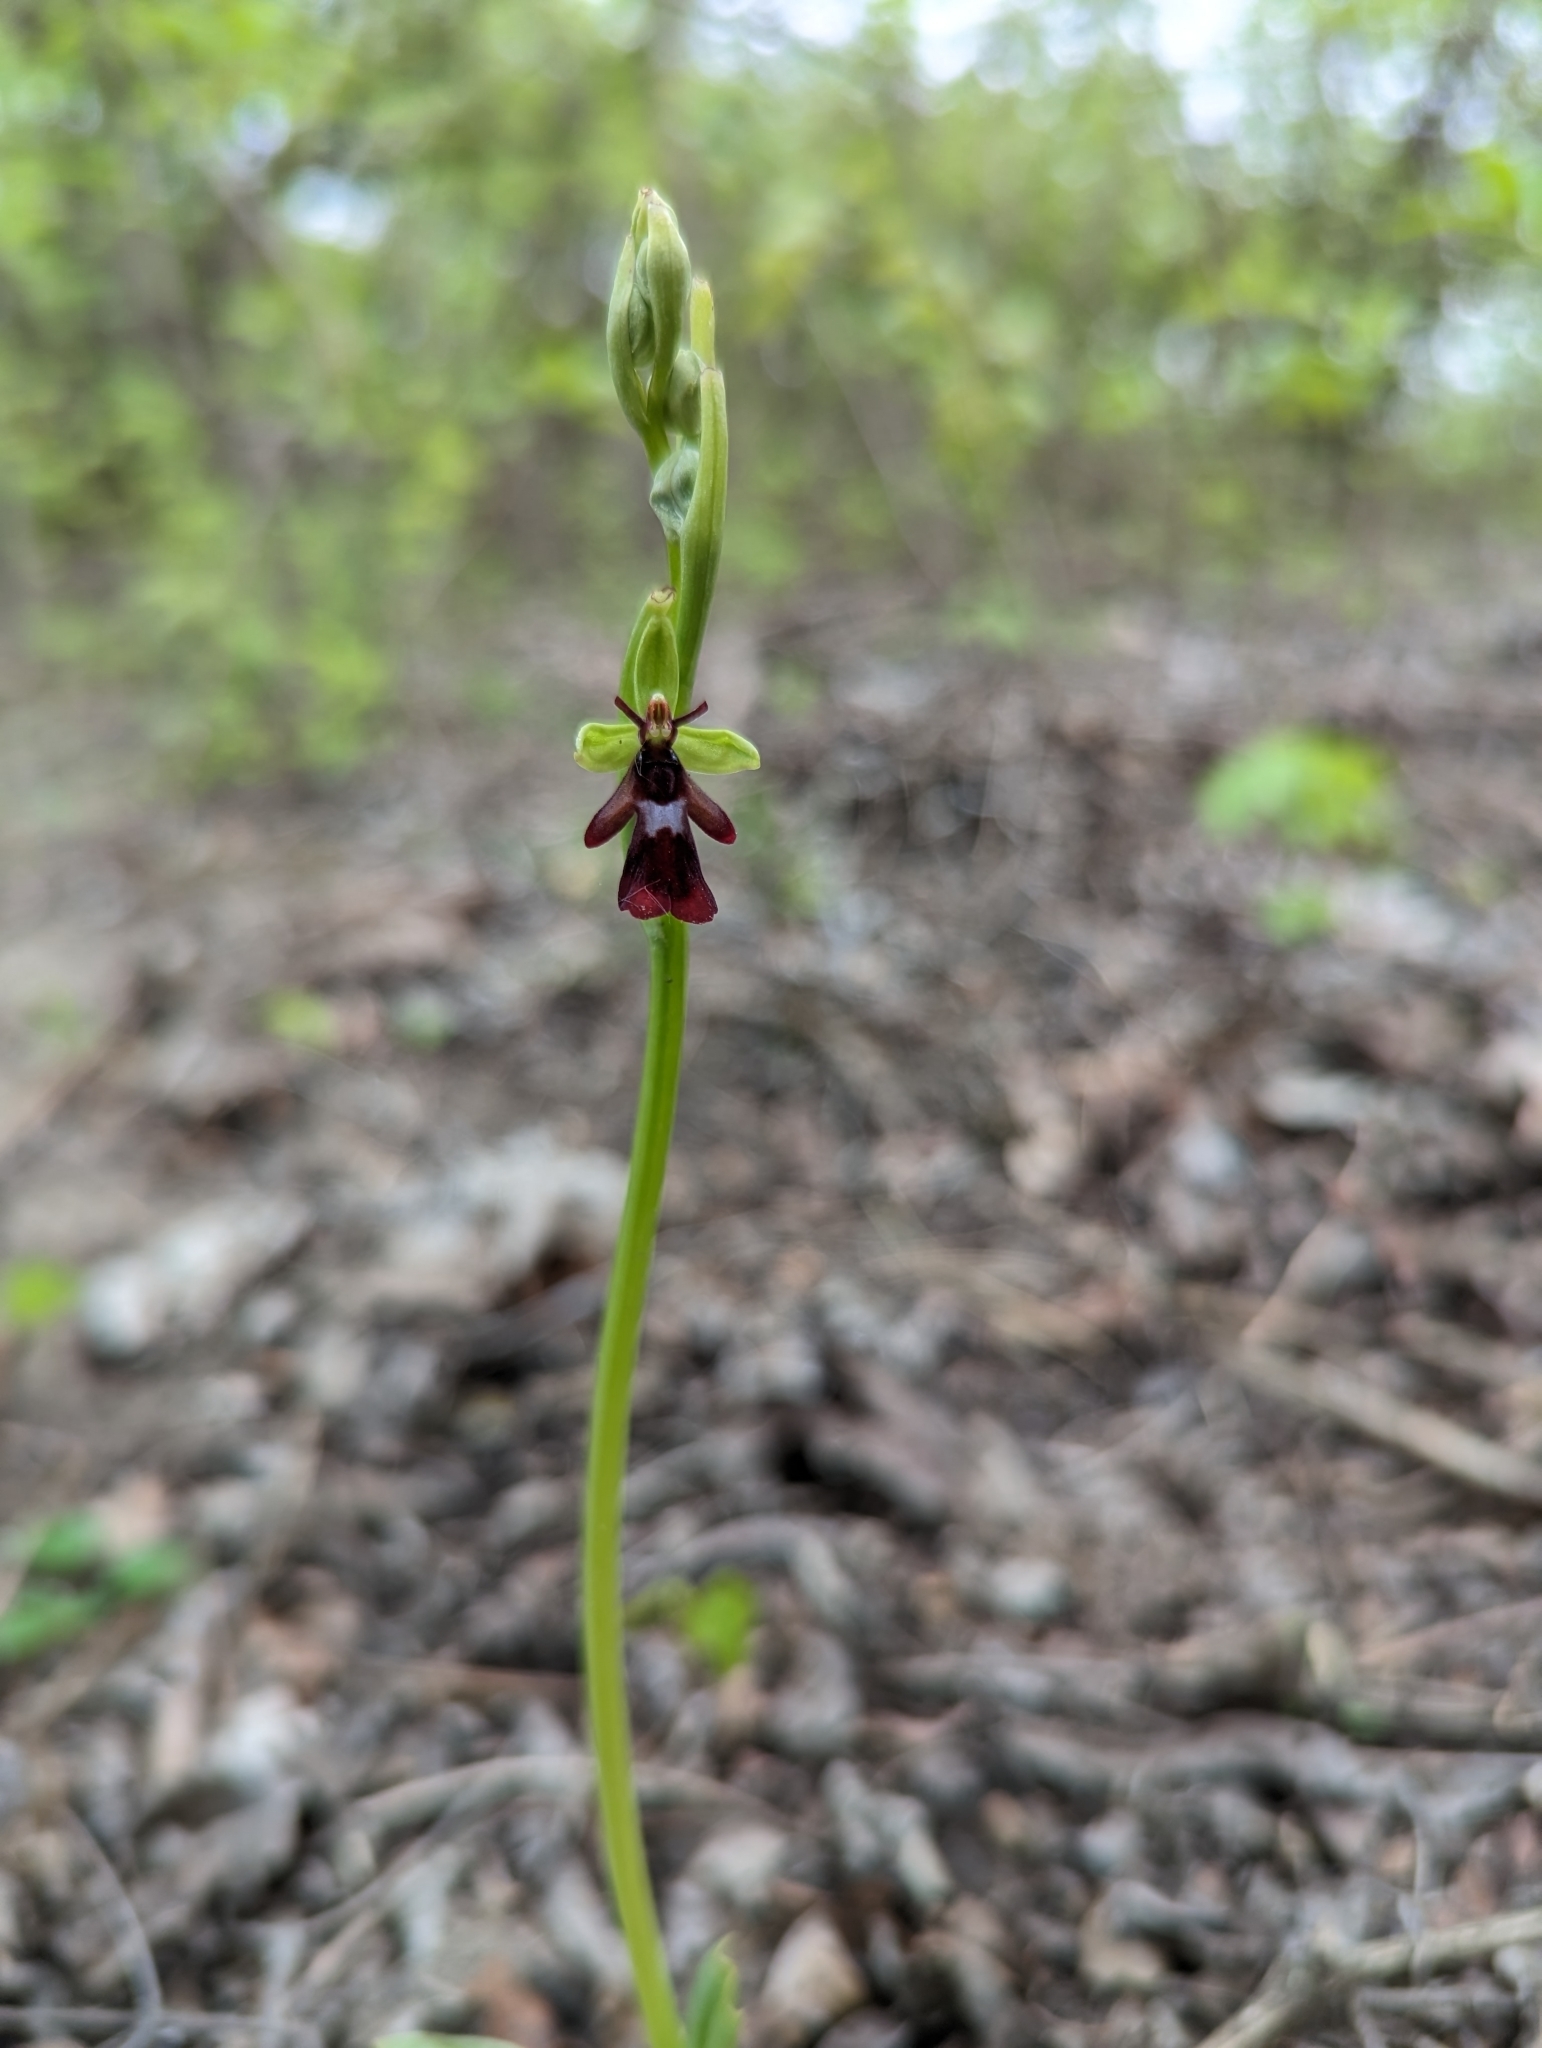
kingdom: Plantae
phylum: Tracheophyta
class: Liliopsida
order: Asparagales
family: Orchidaceae
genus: Ophrys
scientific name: Ophrys insectifera
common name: Fly orchid
